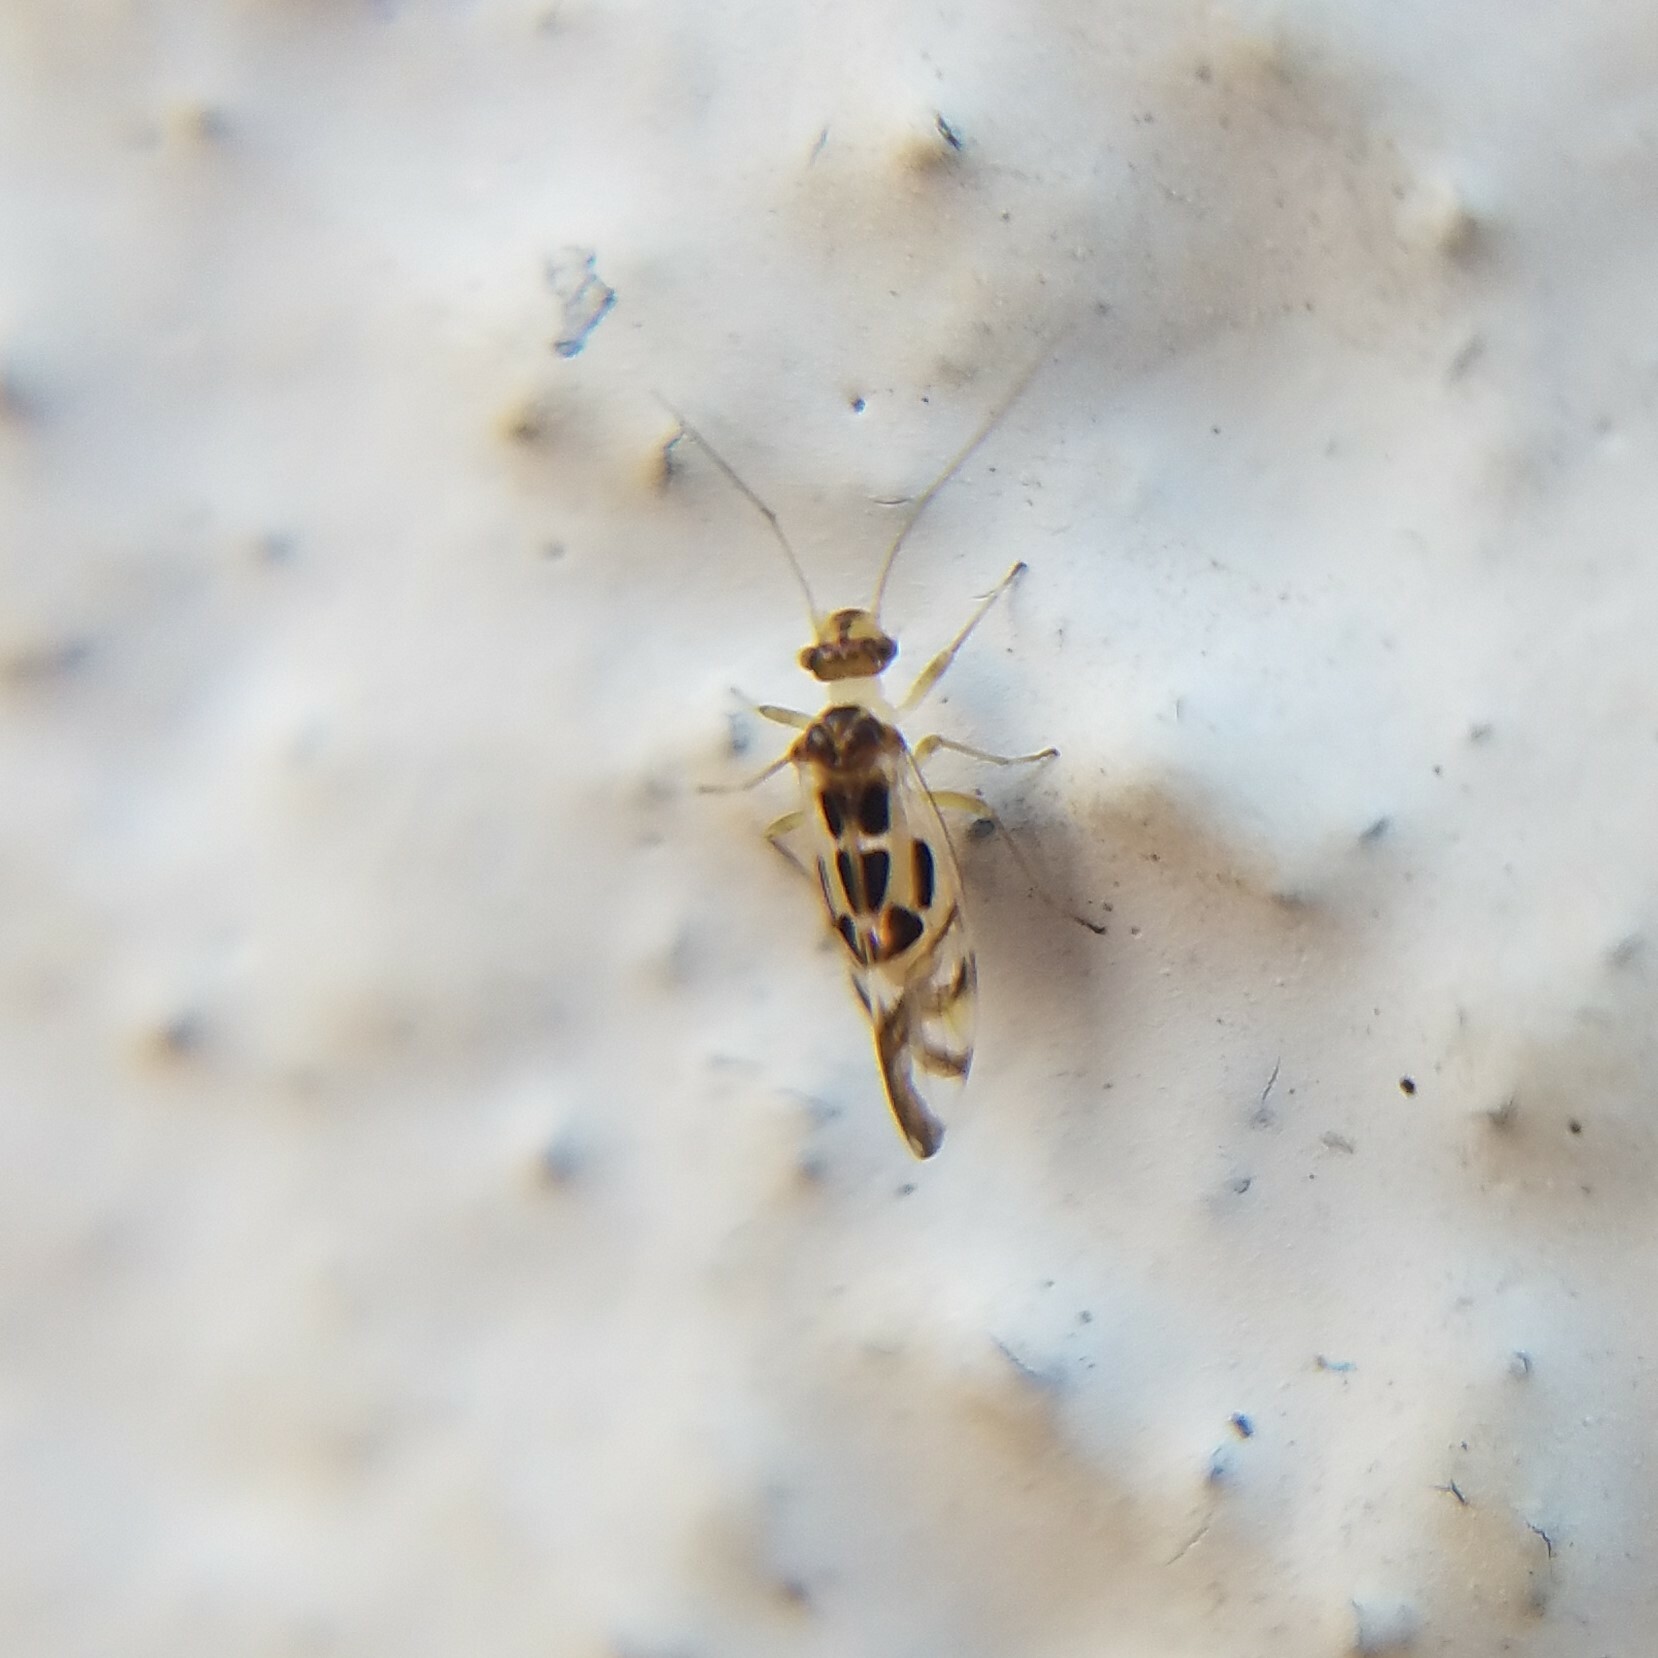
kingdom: Animalia
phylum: Arthropoda
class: Insecta
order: Psocodea
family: Stenopsocidae
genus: Graphopsocus
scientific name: Graphopsocus cruciatus
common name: Lizard bark louse
